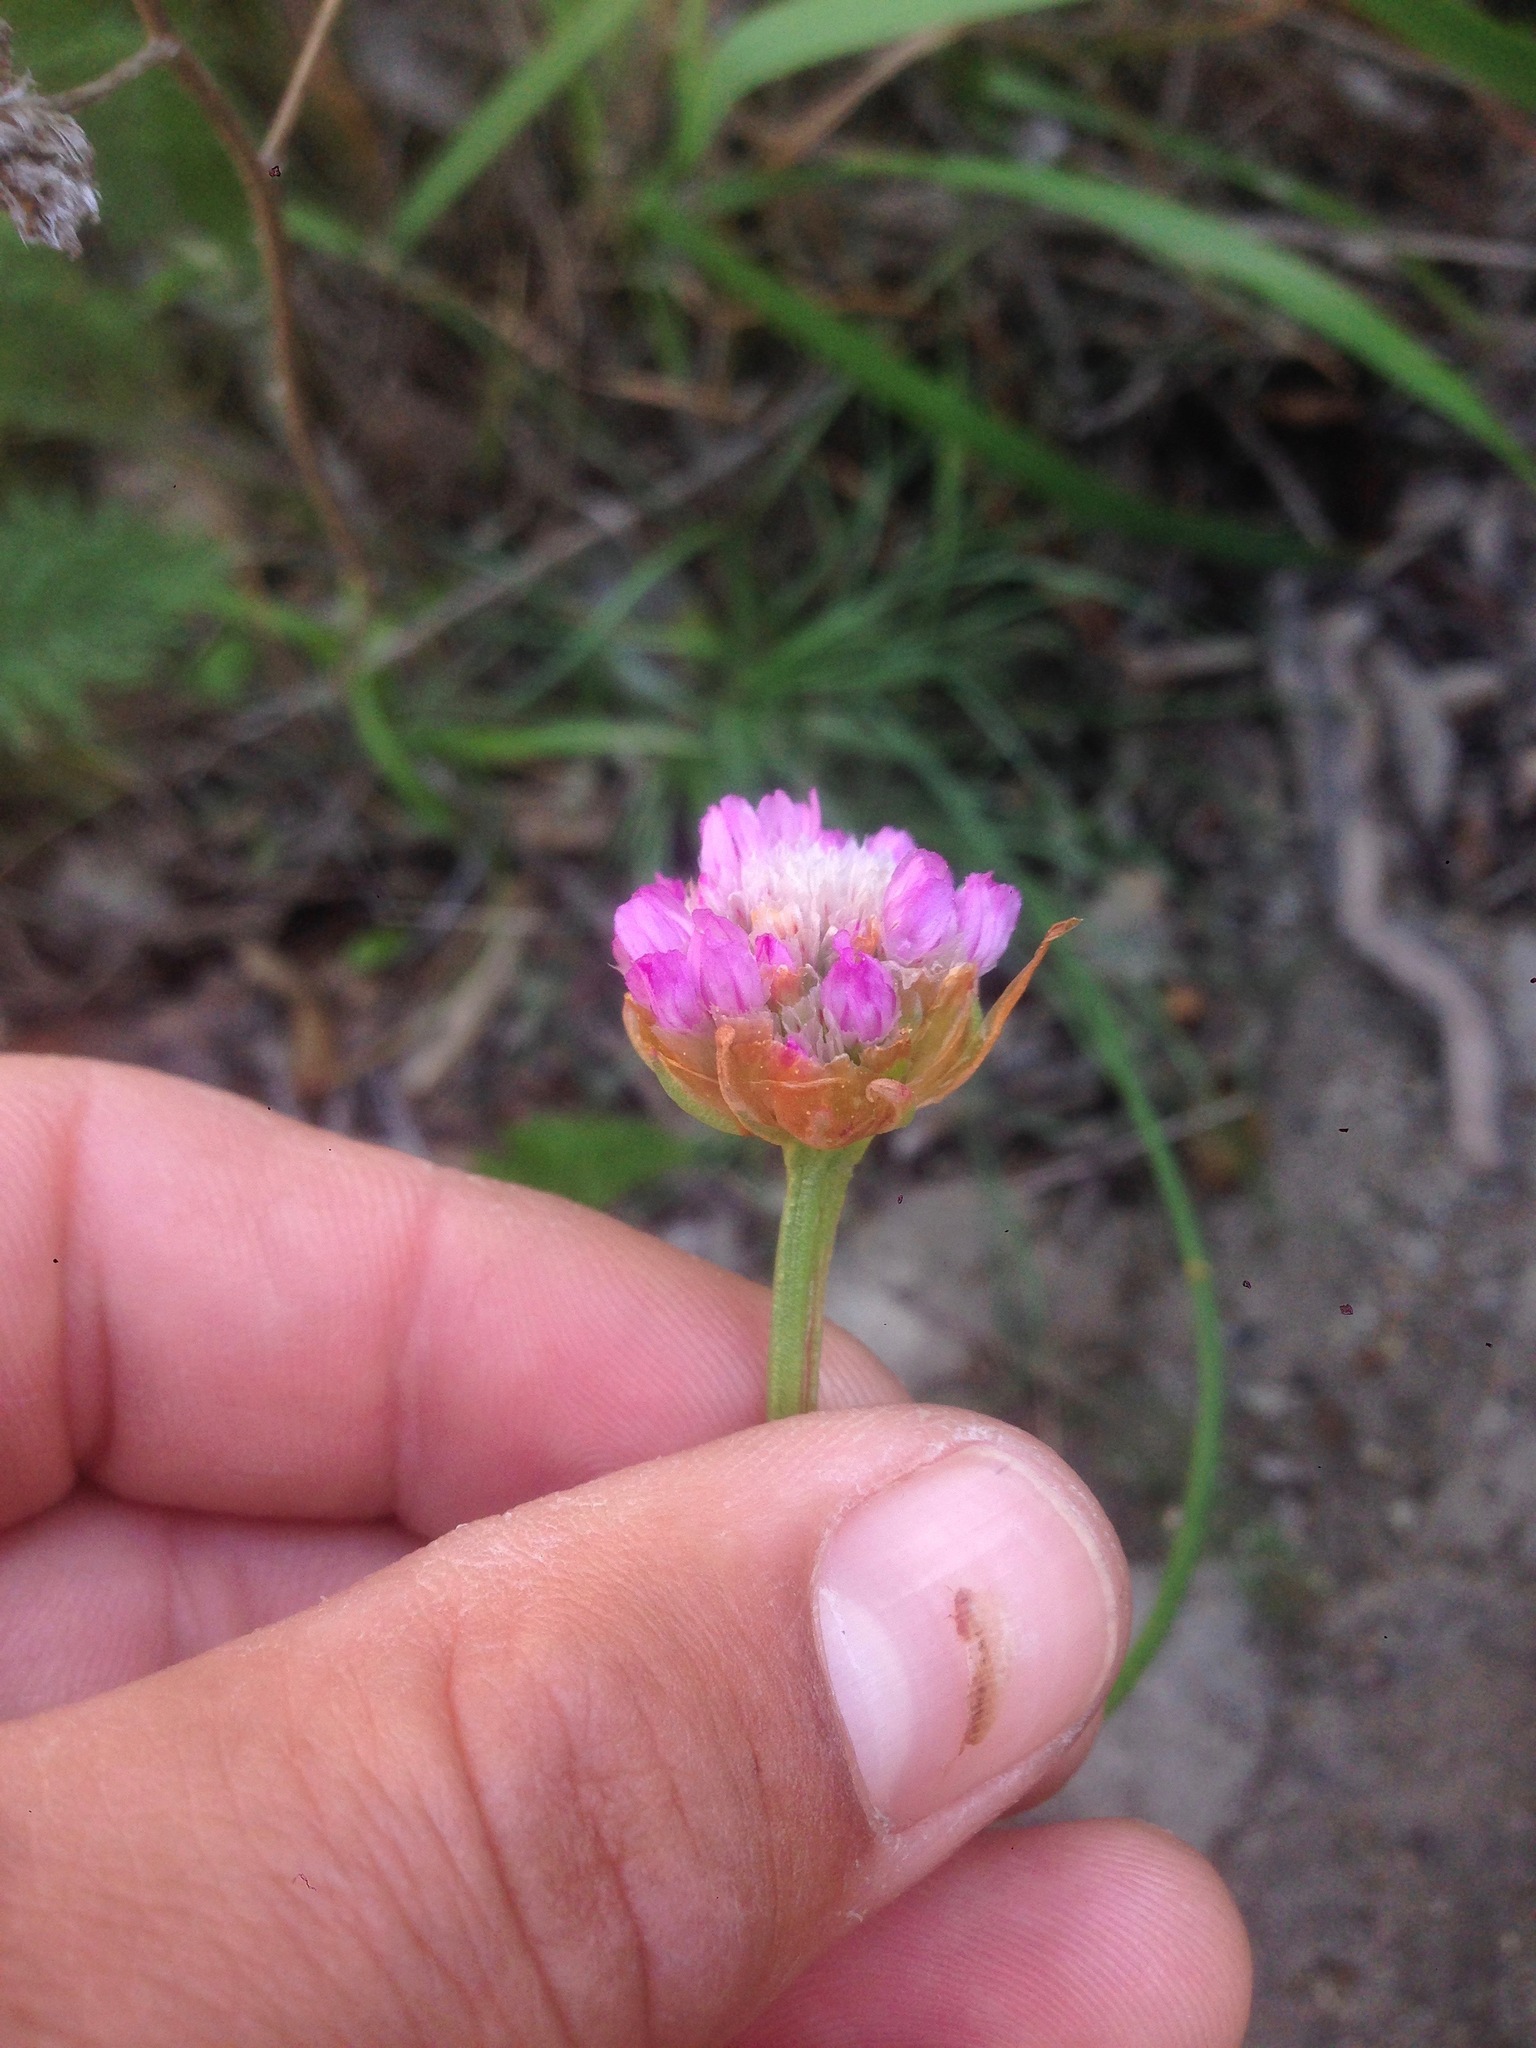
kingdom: Plantae
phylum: Tracheophyta
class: Magnoliopsida
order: Caryophyllales
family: Plumbaginaceae
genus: Armeria
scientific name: Armeria maritima
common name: Thrift
